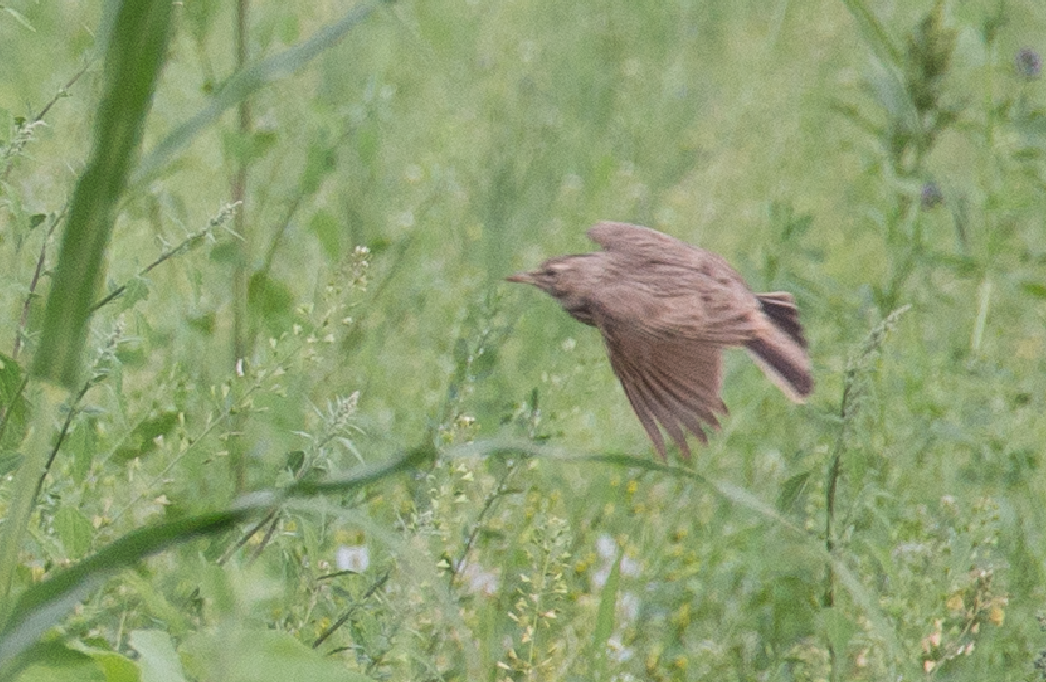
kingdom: Animalia
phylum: Chordata
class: Aves
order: Passeriformes
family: Alaudidae
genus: Galerida
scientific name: Galerida cristata
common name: Crested lark
